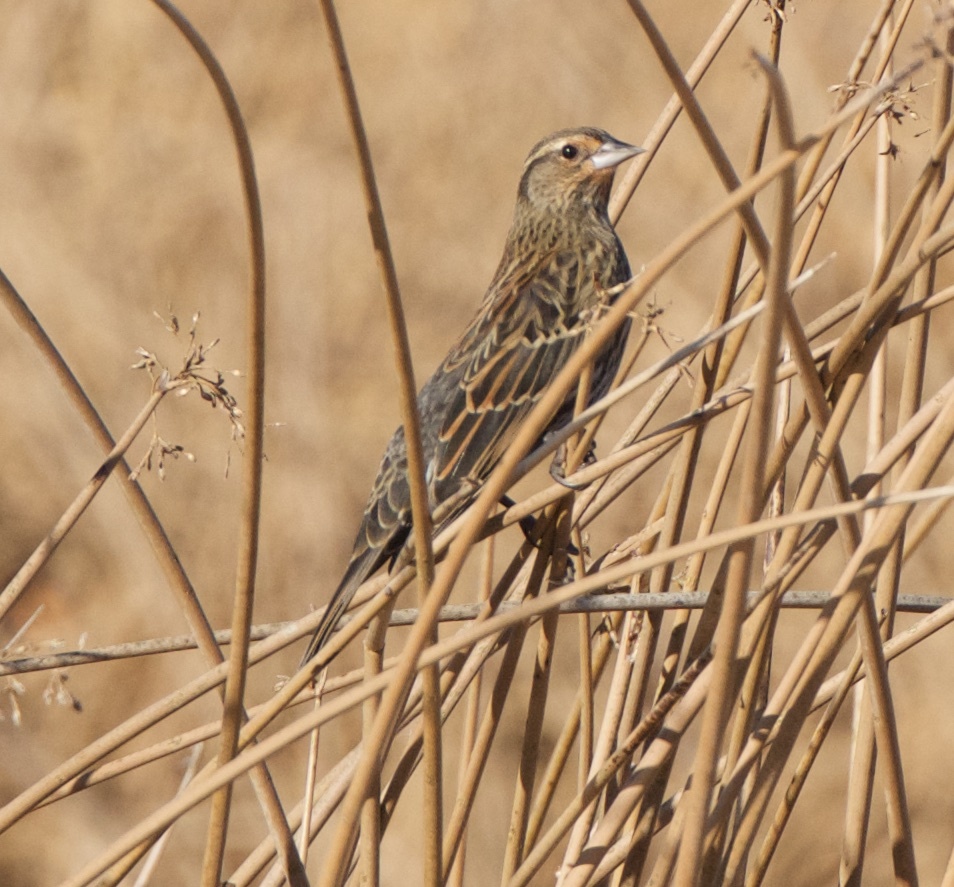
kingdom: Animalia
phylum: Chordata
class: Aves
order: Passeriformes
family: Icteridae
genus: Agelaius
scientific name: Agelaius phoeniceus
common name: Red-winged blackbird
